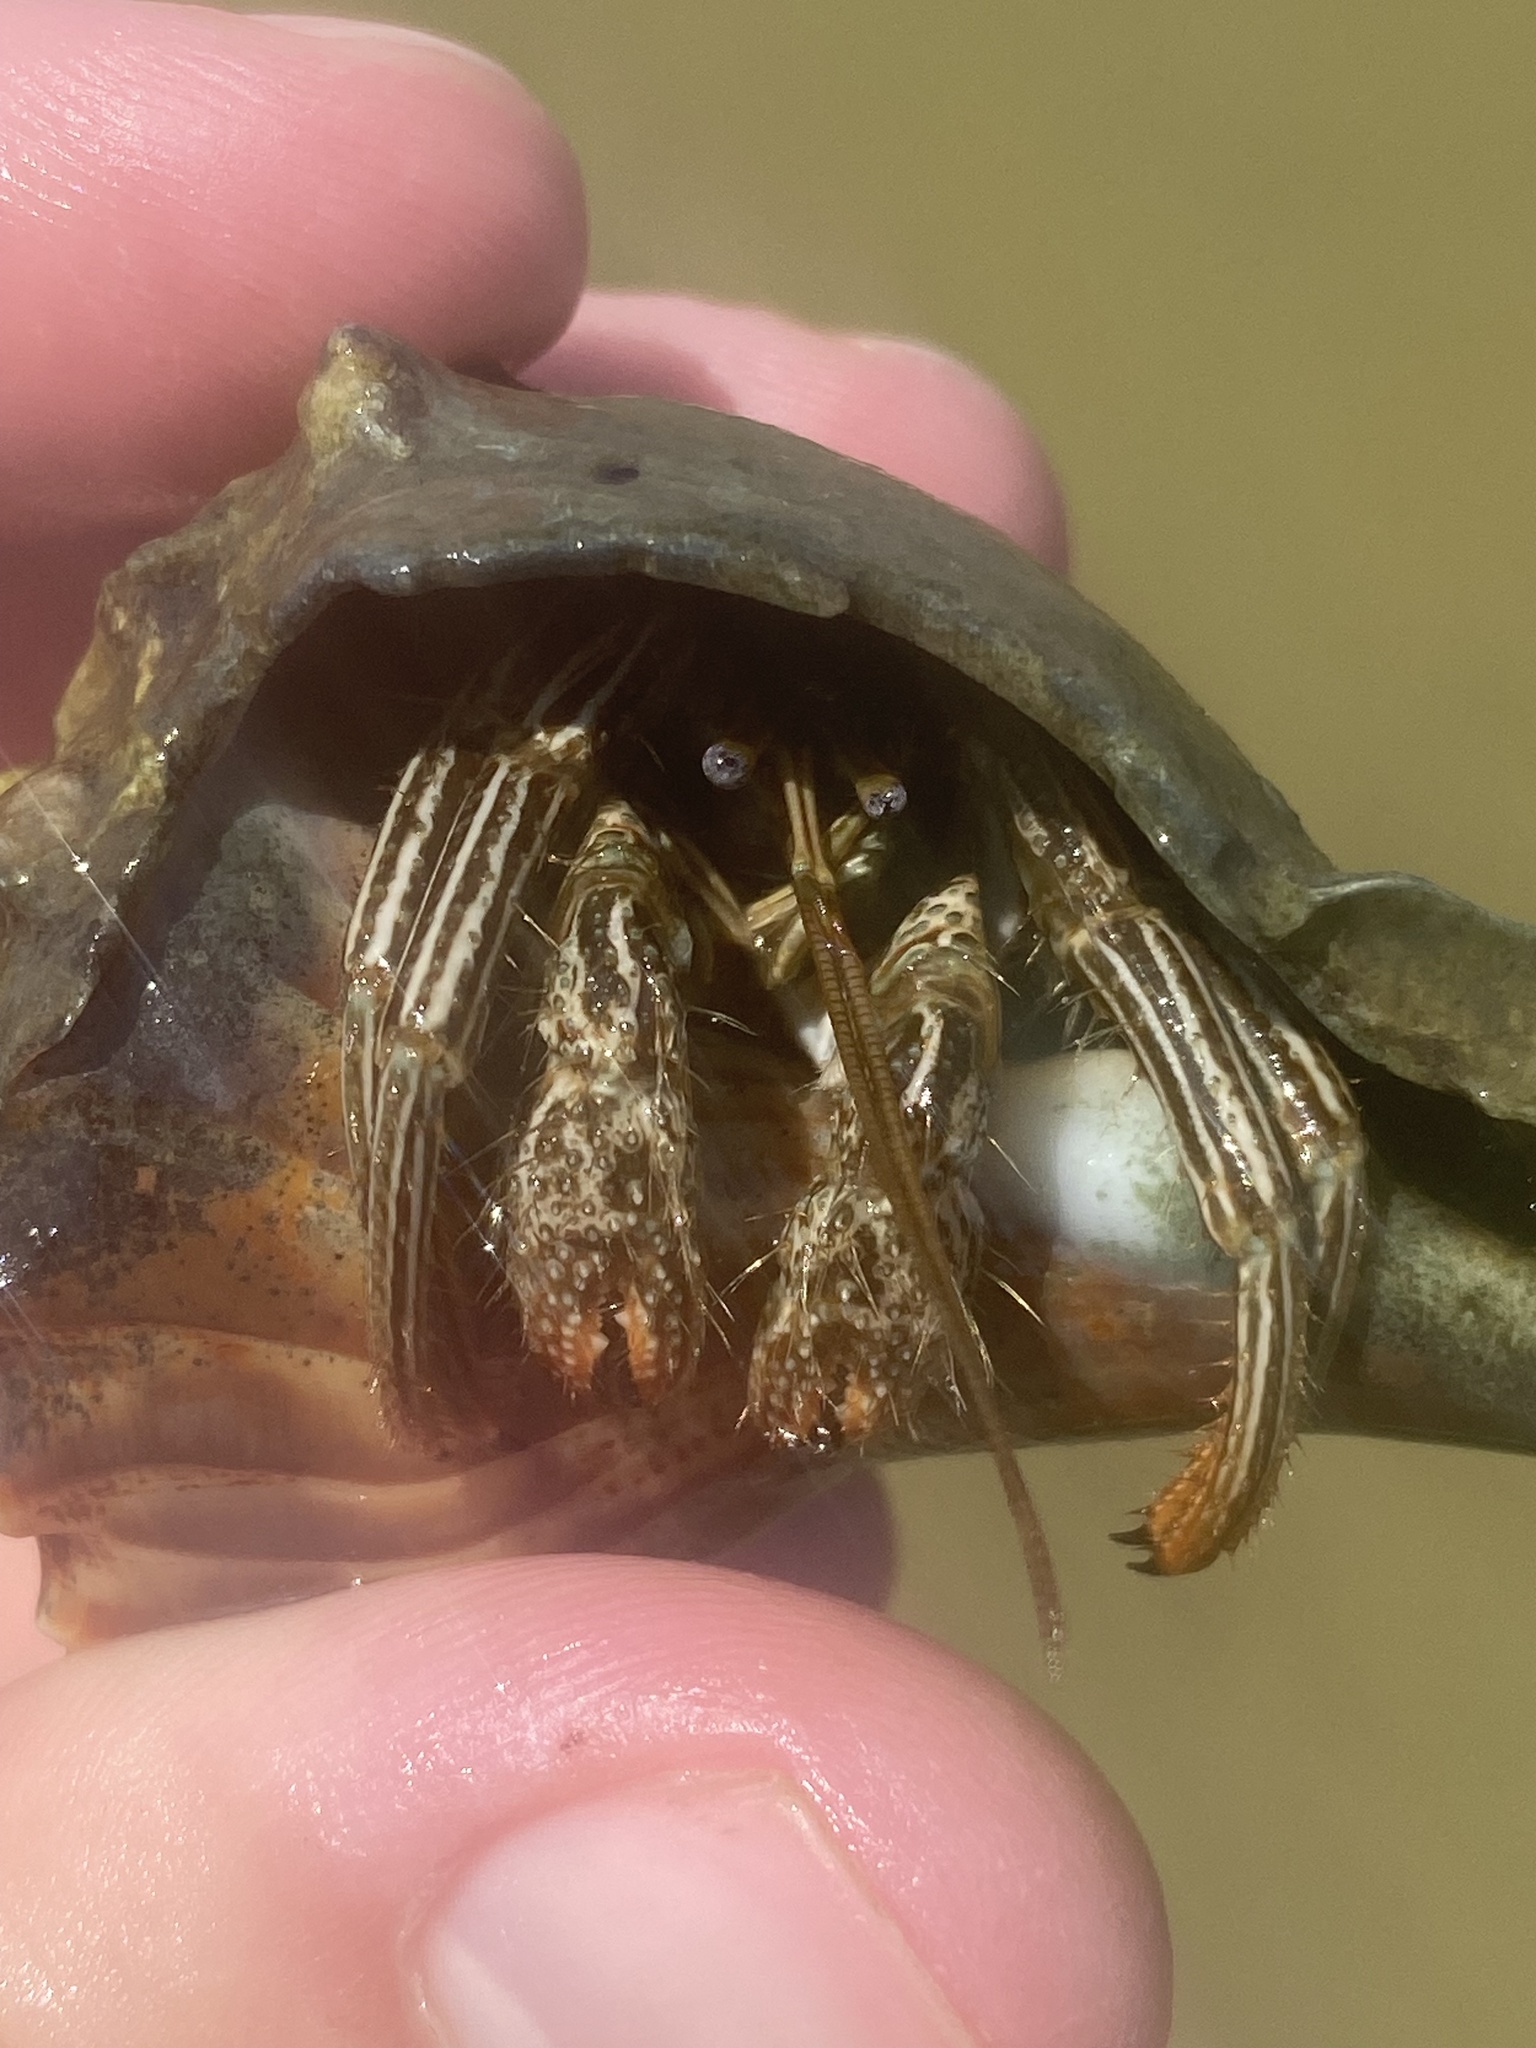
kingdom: Animalia
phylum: Arthropoda
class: Malacostraca
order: Decapoda
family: Diogenidae
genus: Clibanarius
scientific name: Clibanarius vittatus
